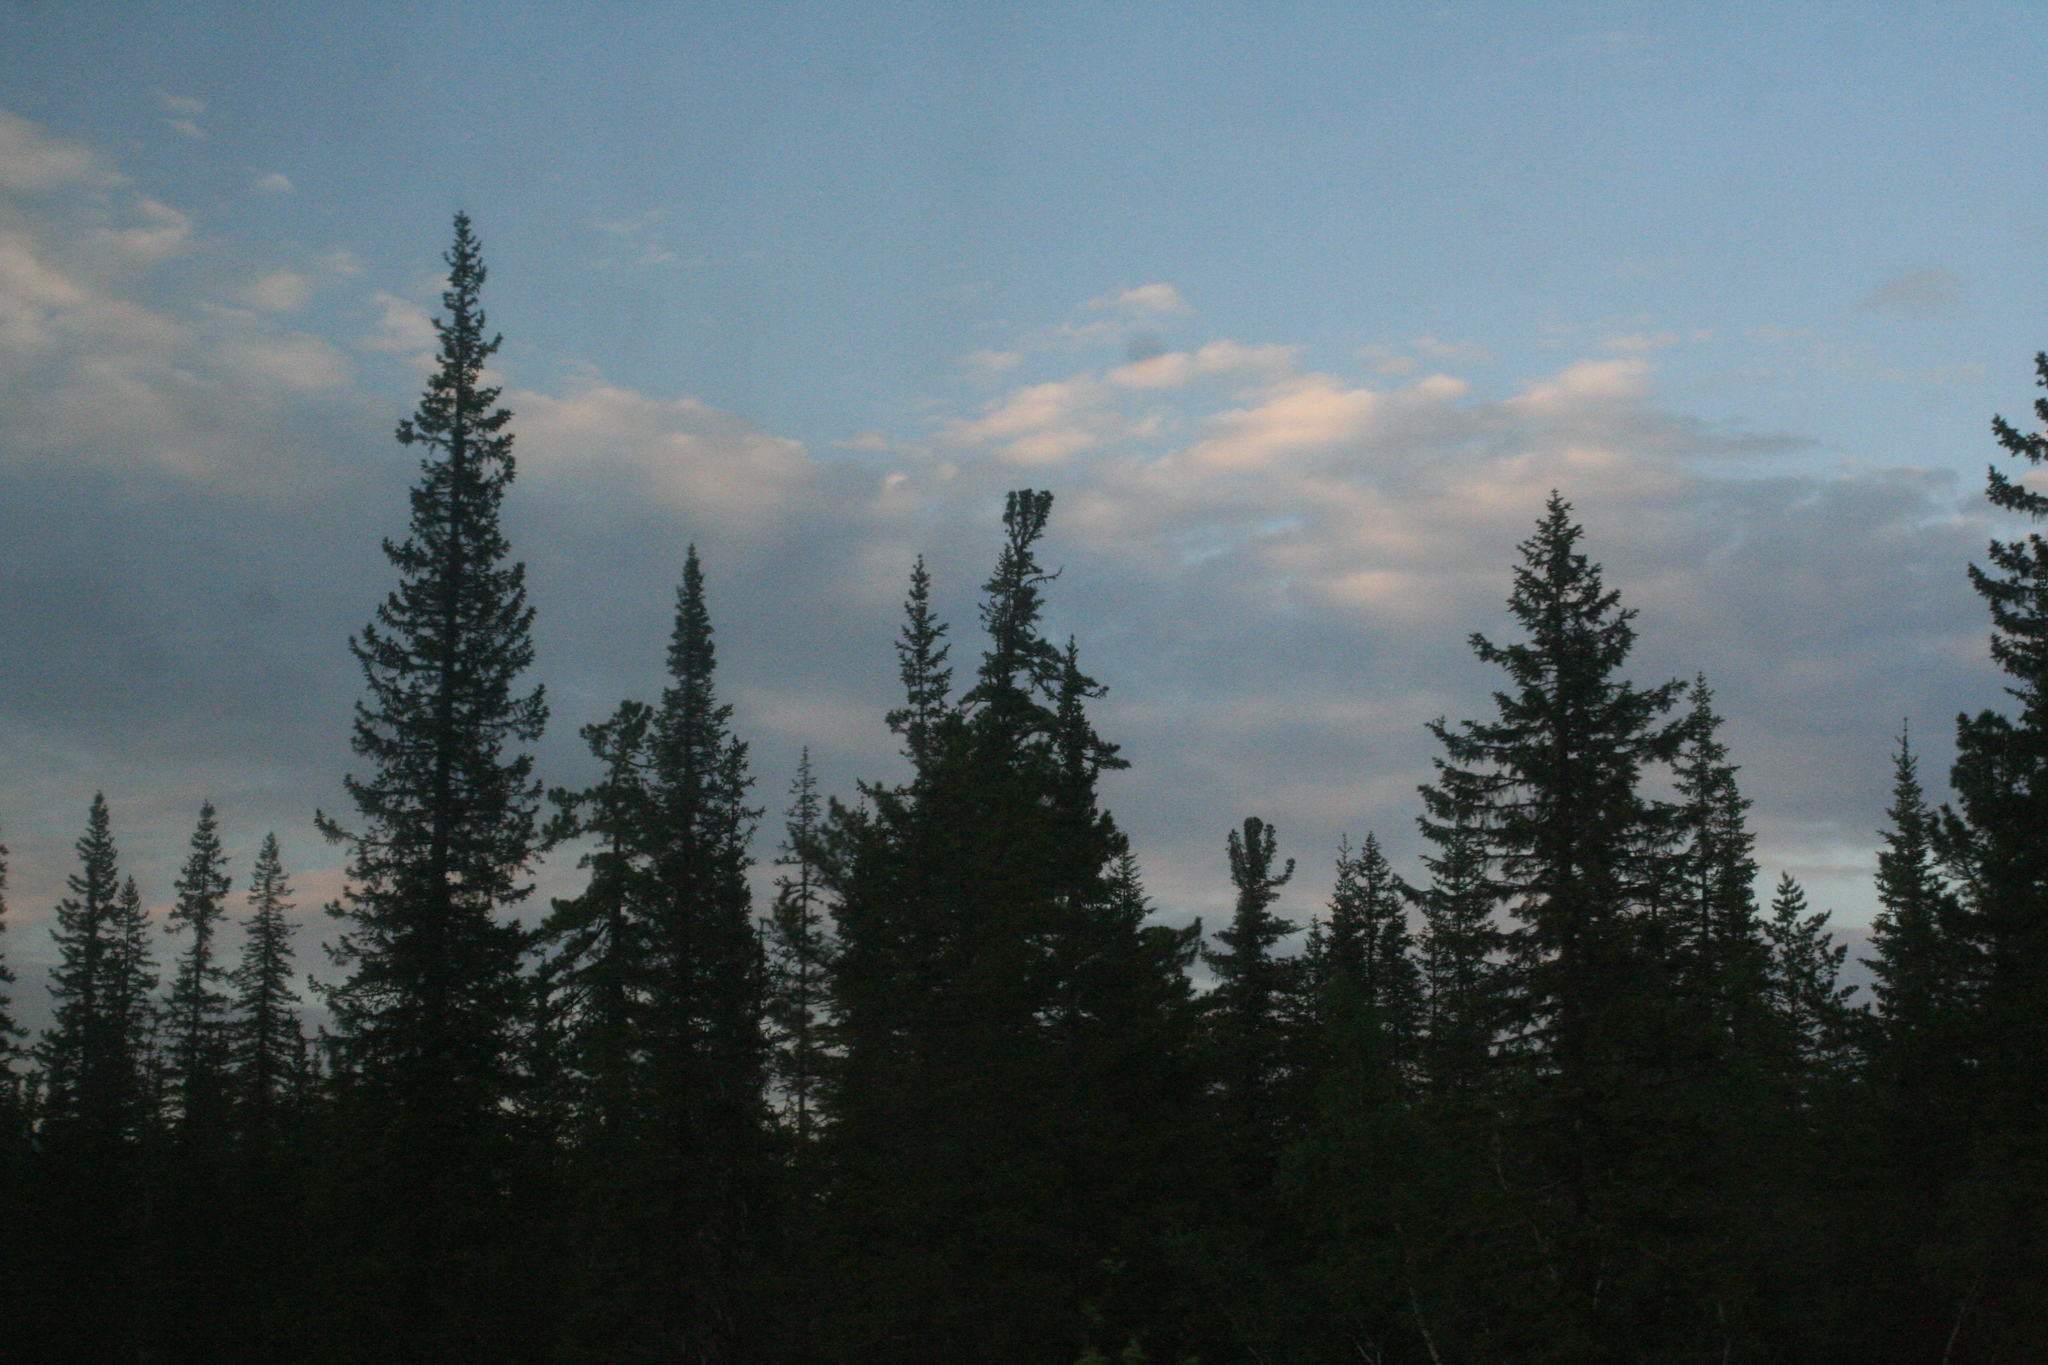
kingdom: Plantae
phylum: Tracheophyta
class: Pinopsida
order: Pinales
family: Pinaceae
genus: Picea
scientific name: Picea obovata
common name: Siberian spruce
